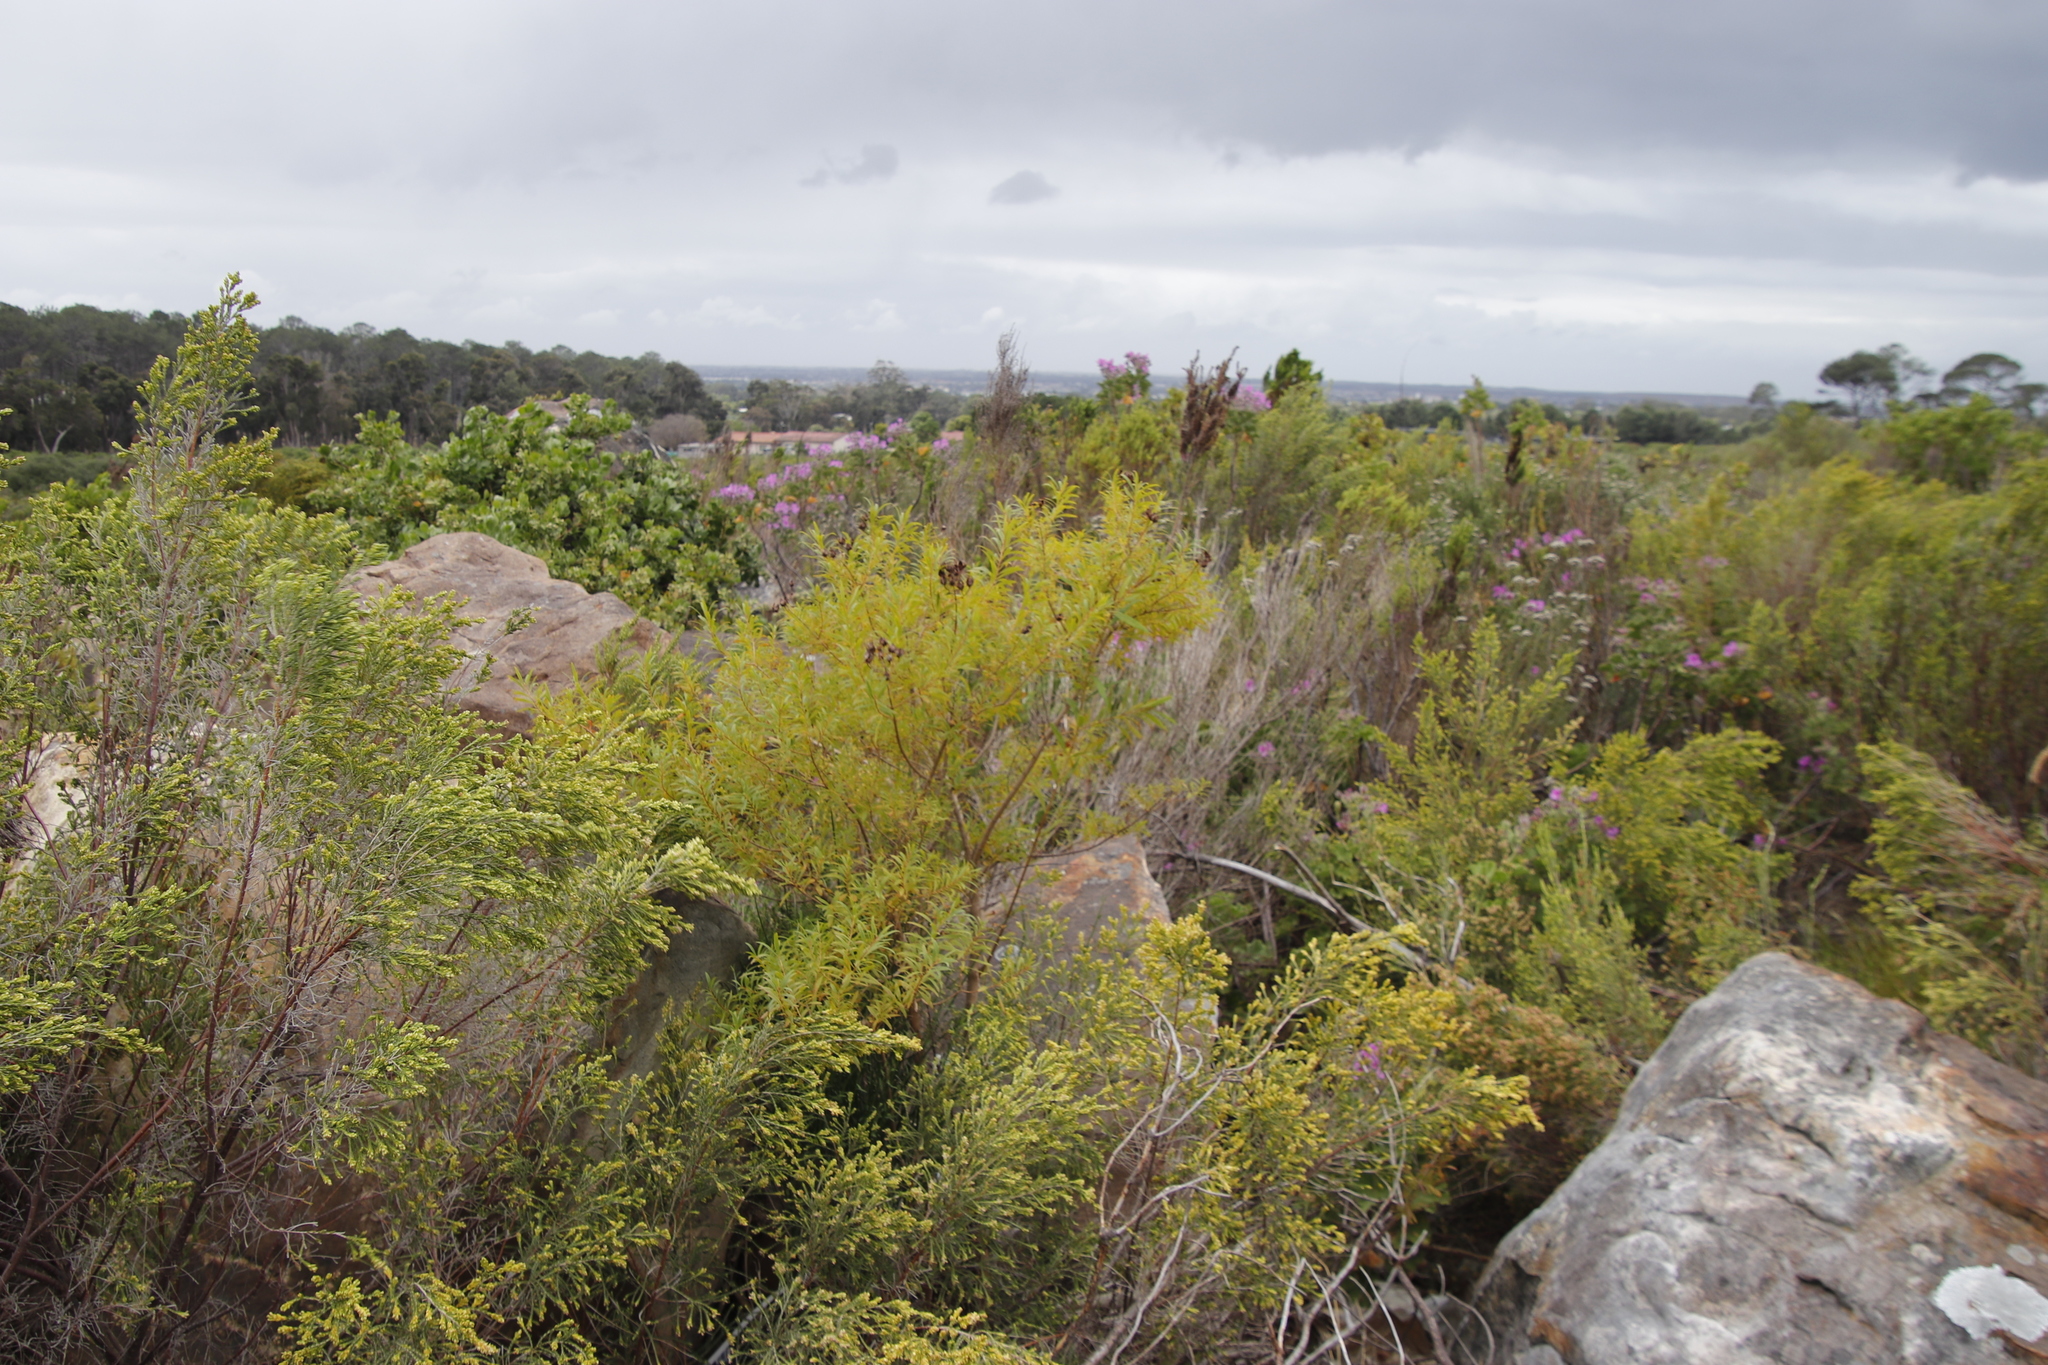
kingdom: Plantae
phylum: Tracheophyta
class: Magnoliopsida
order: Malpighiales
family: Hypericaceae
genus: Hypericum
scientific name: Hypericum canariense
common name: Canary island st. johnswort
